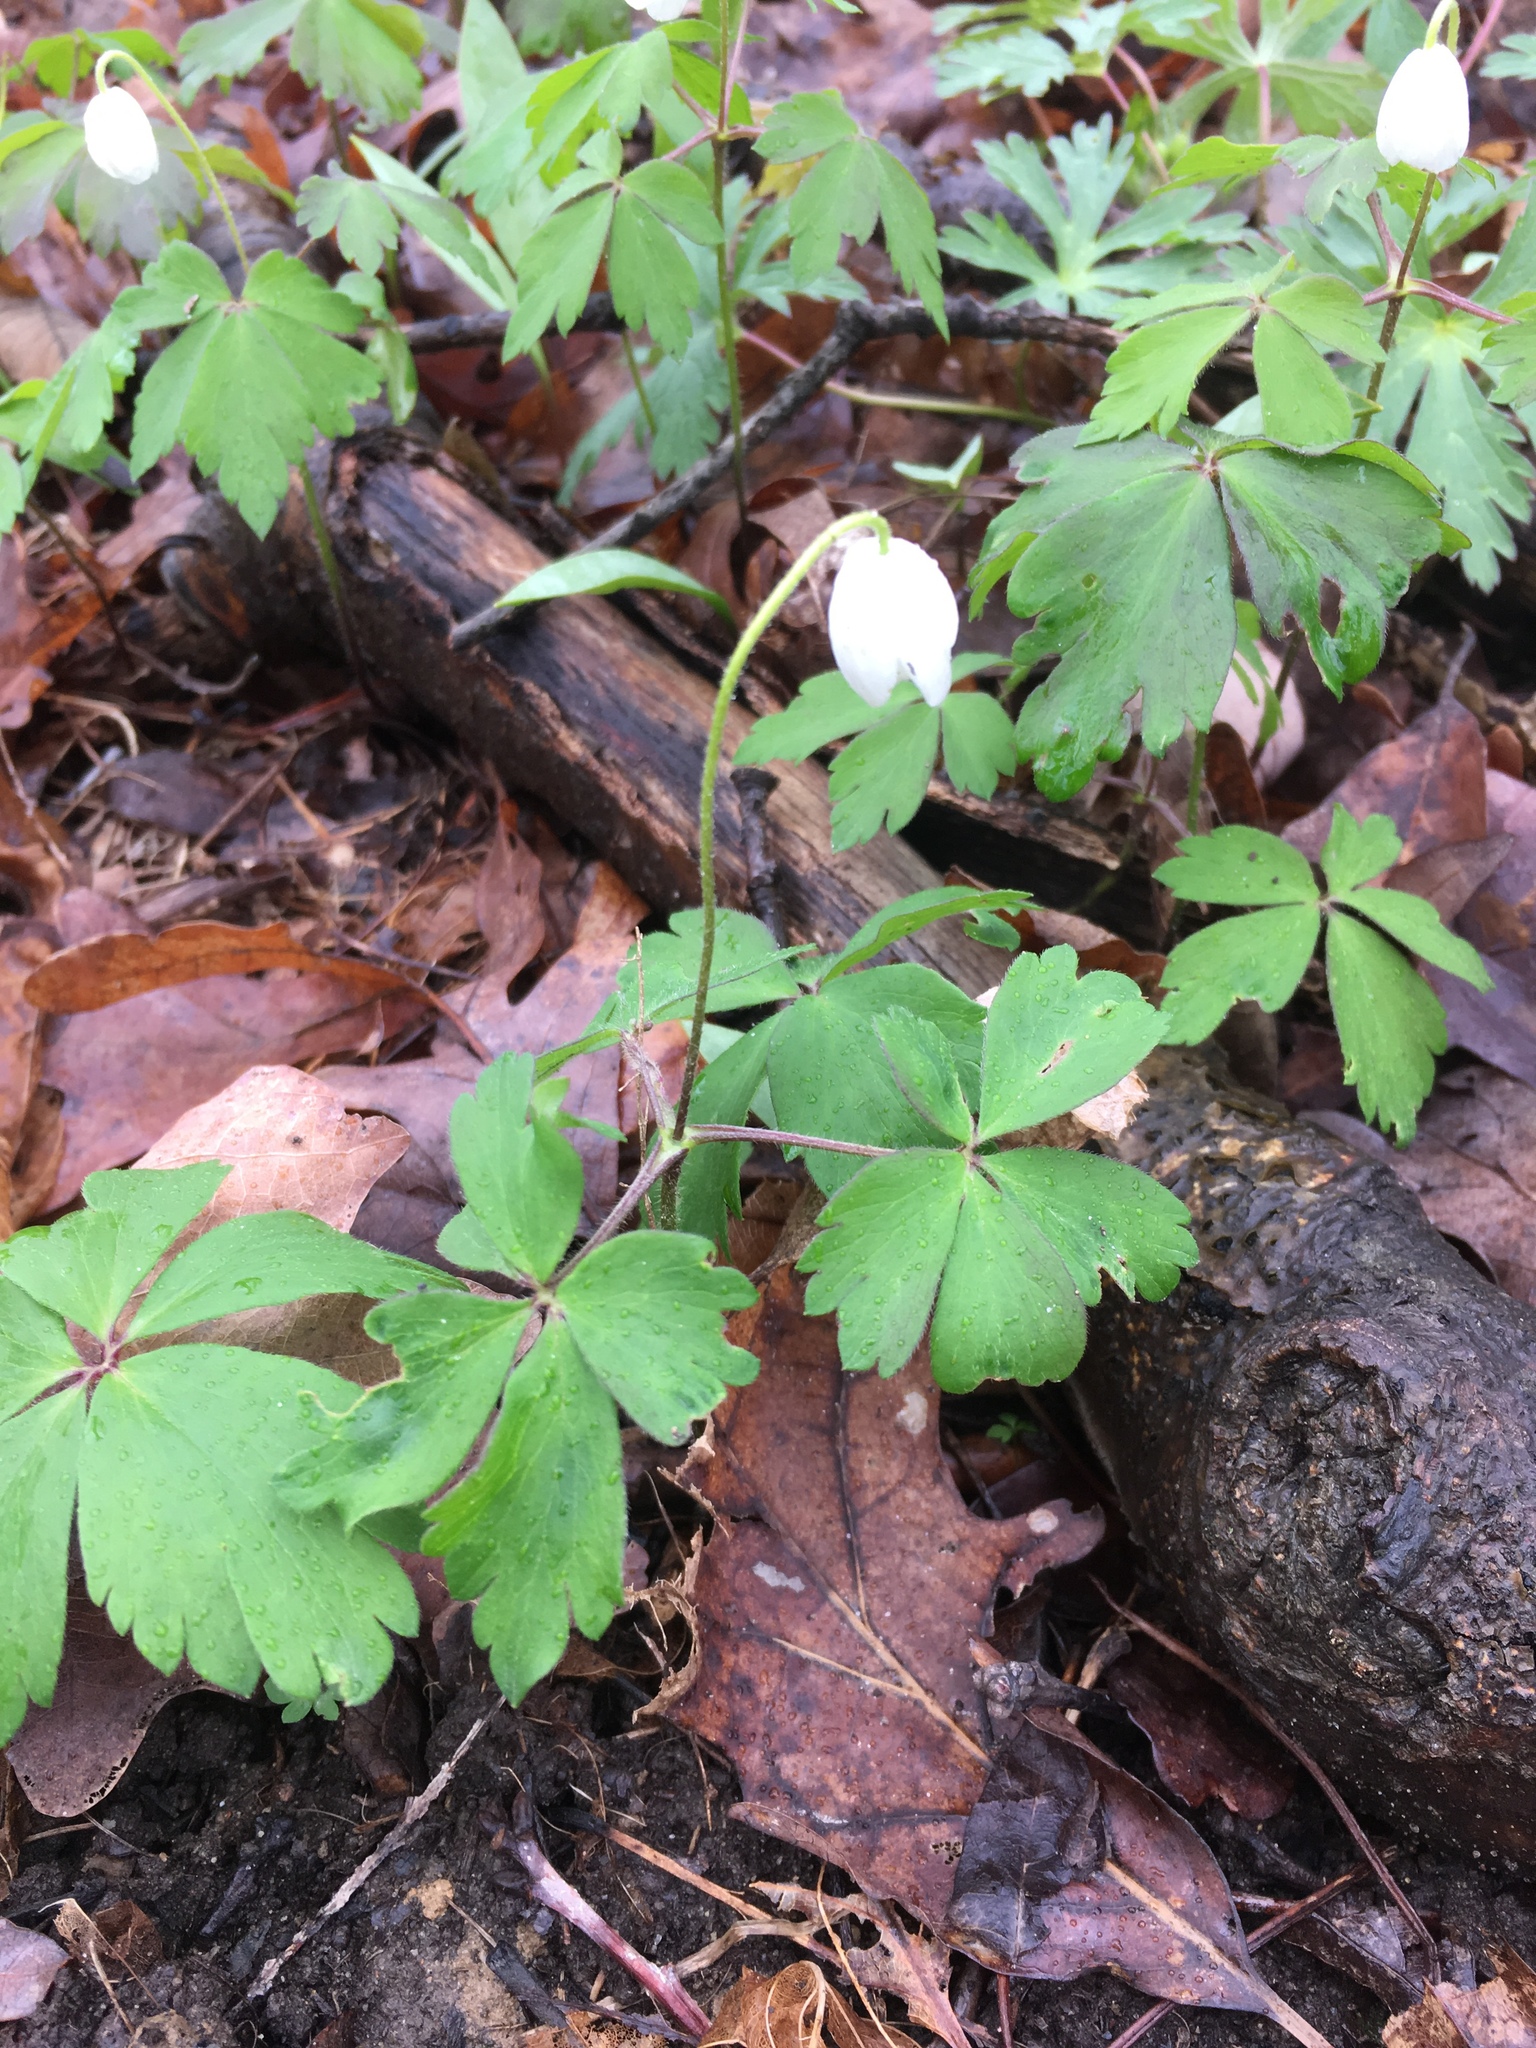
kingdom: Plantae
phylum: Tracheophyta
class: Magnoliopsida
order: Ranunculales
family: Ranunculaceae
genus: Anemone
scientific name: Anemone quinquefolia
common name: Wood anemone
